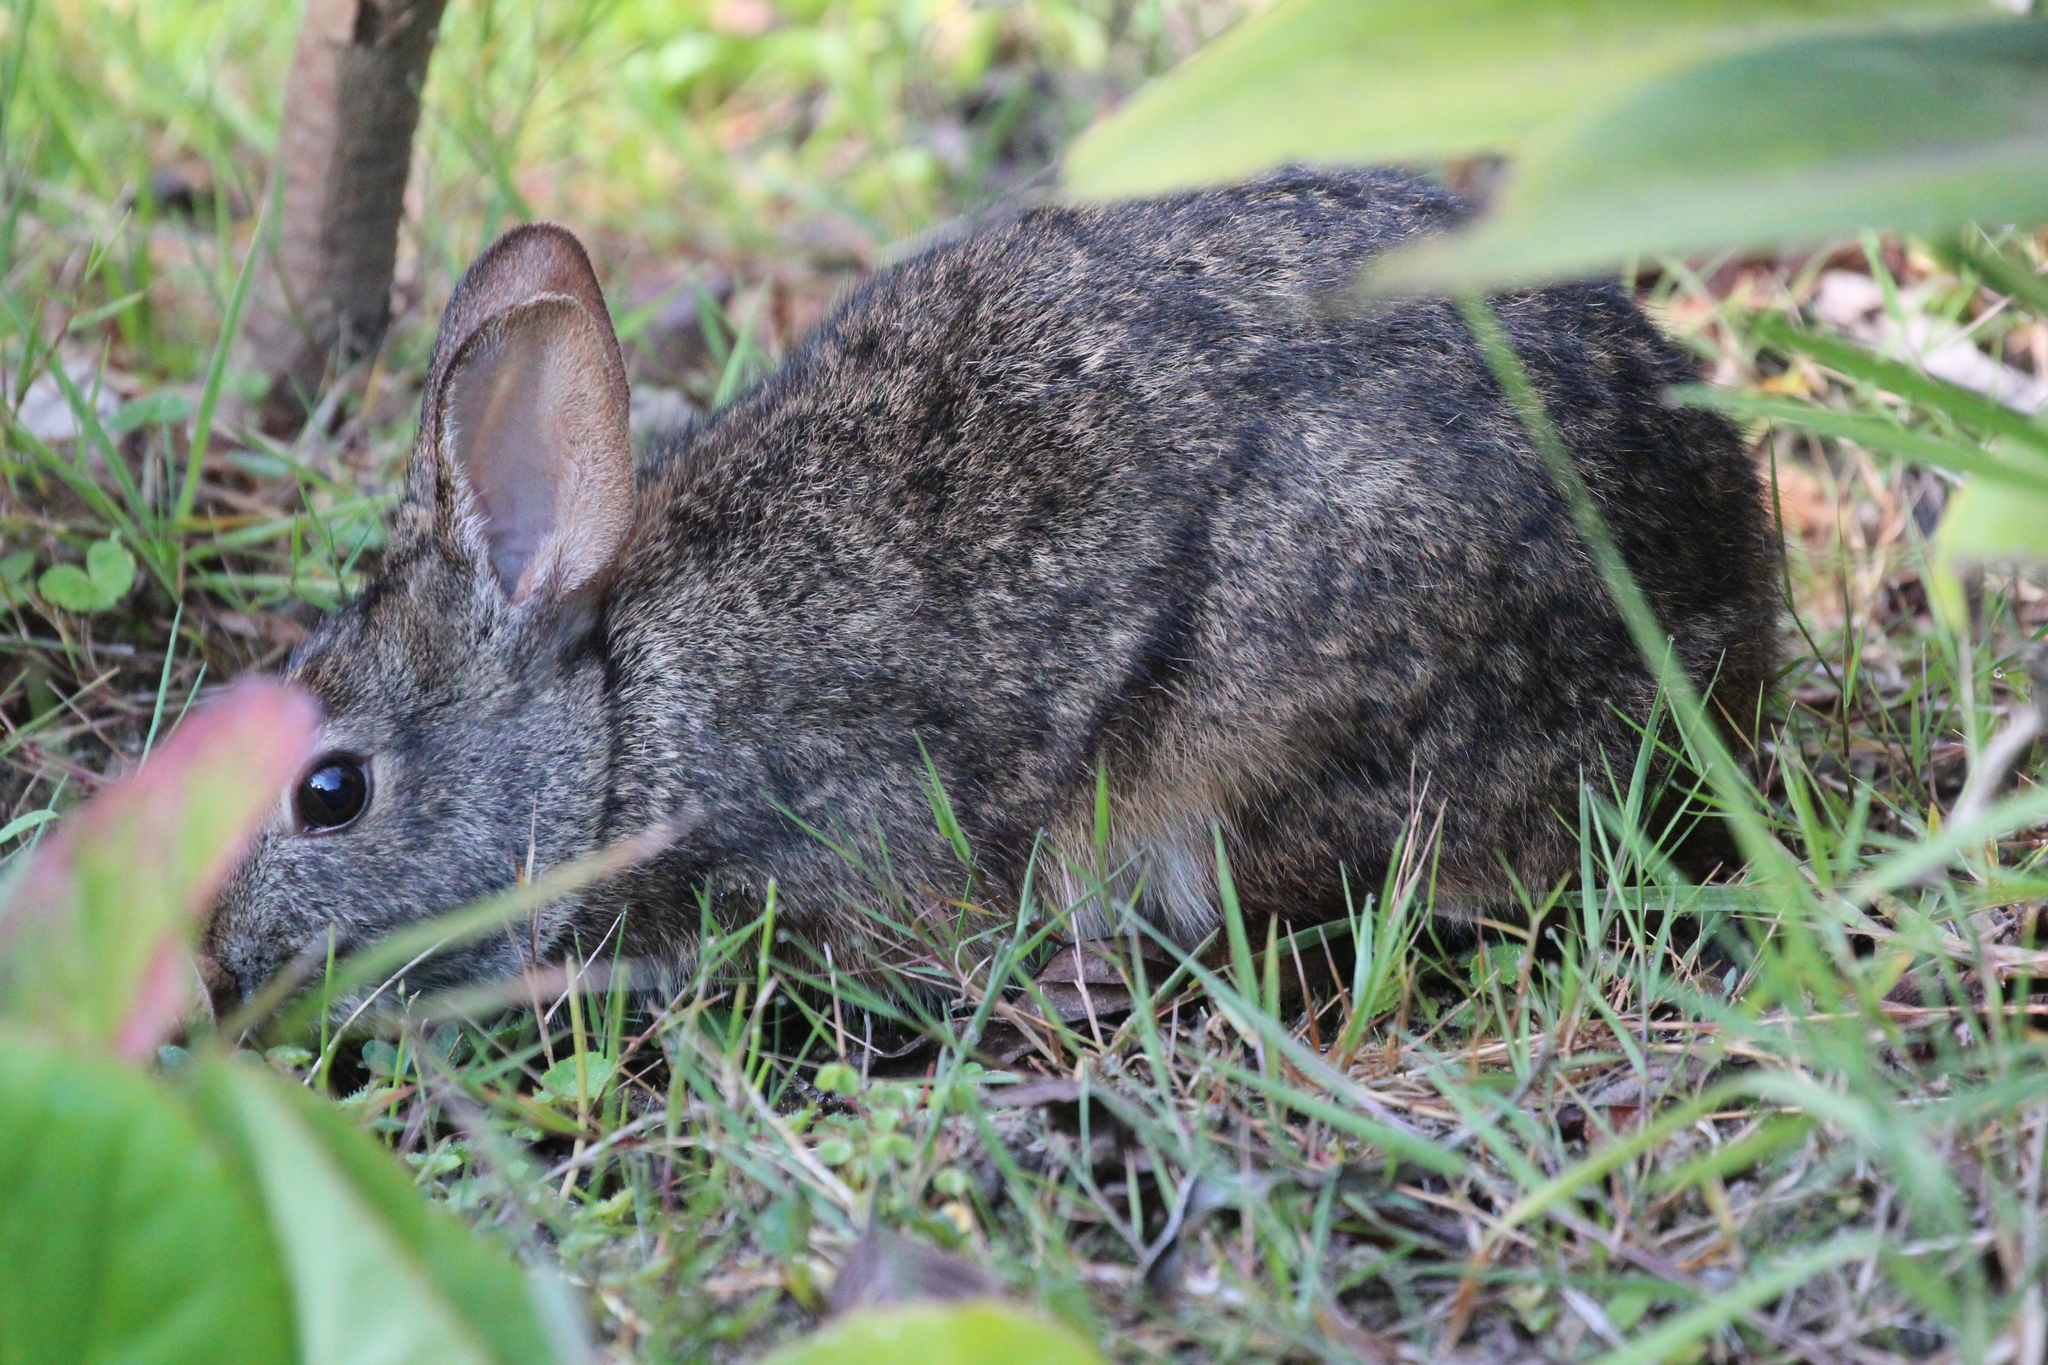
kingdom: Animalia
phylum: Chordata
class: Mammalia
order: Lagomorpha
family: Leporidae
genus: Sylvilagus
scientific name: Sylvilagus andinus
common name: Andean cottontail
